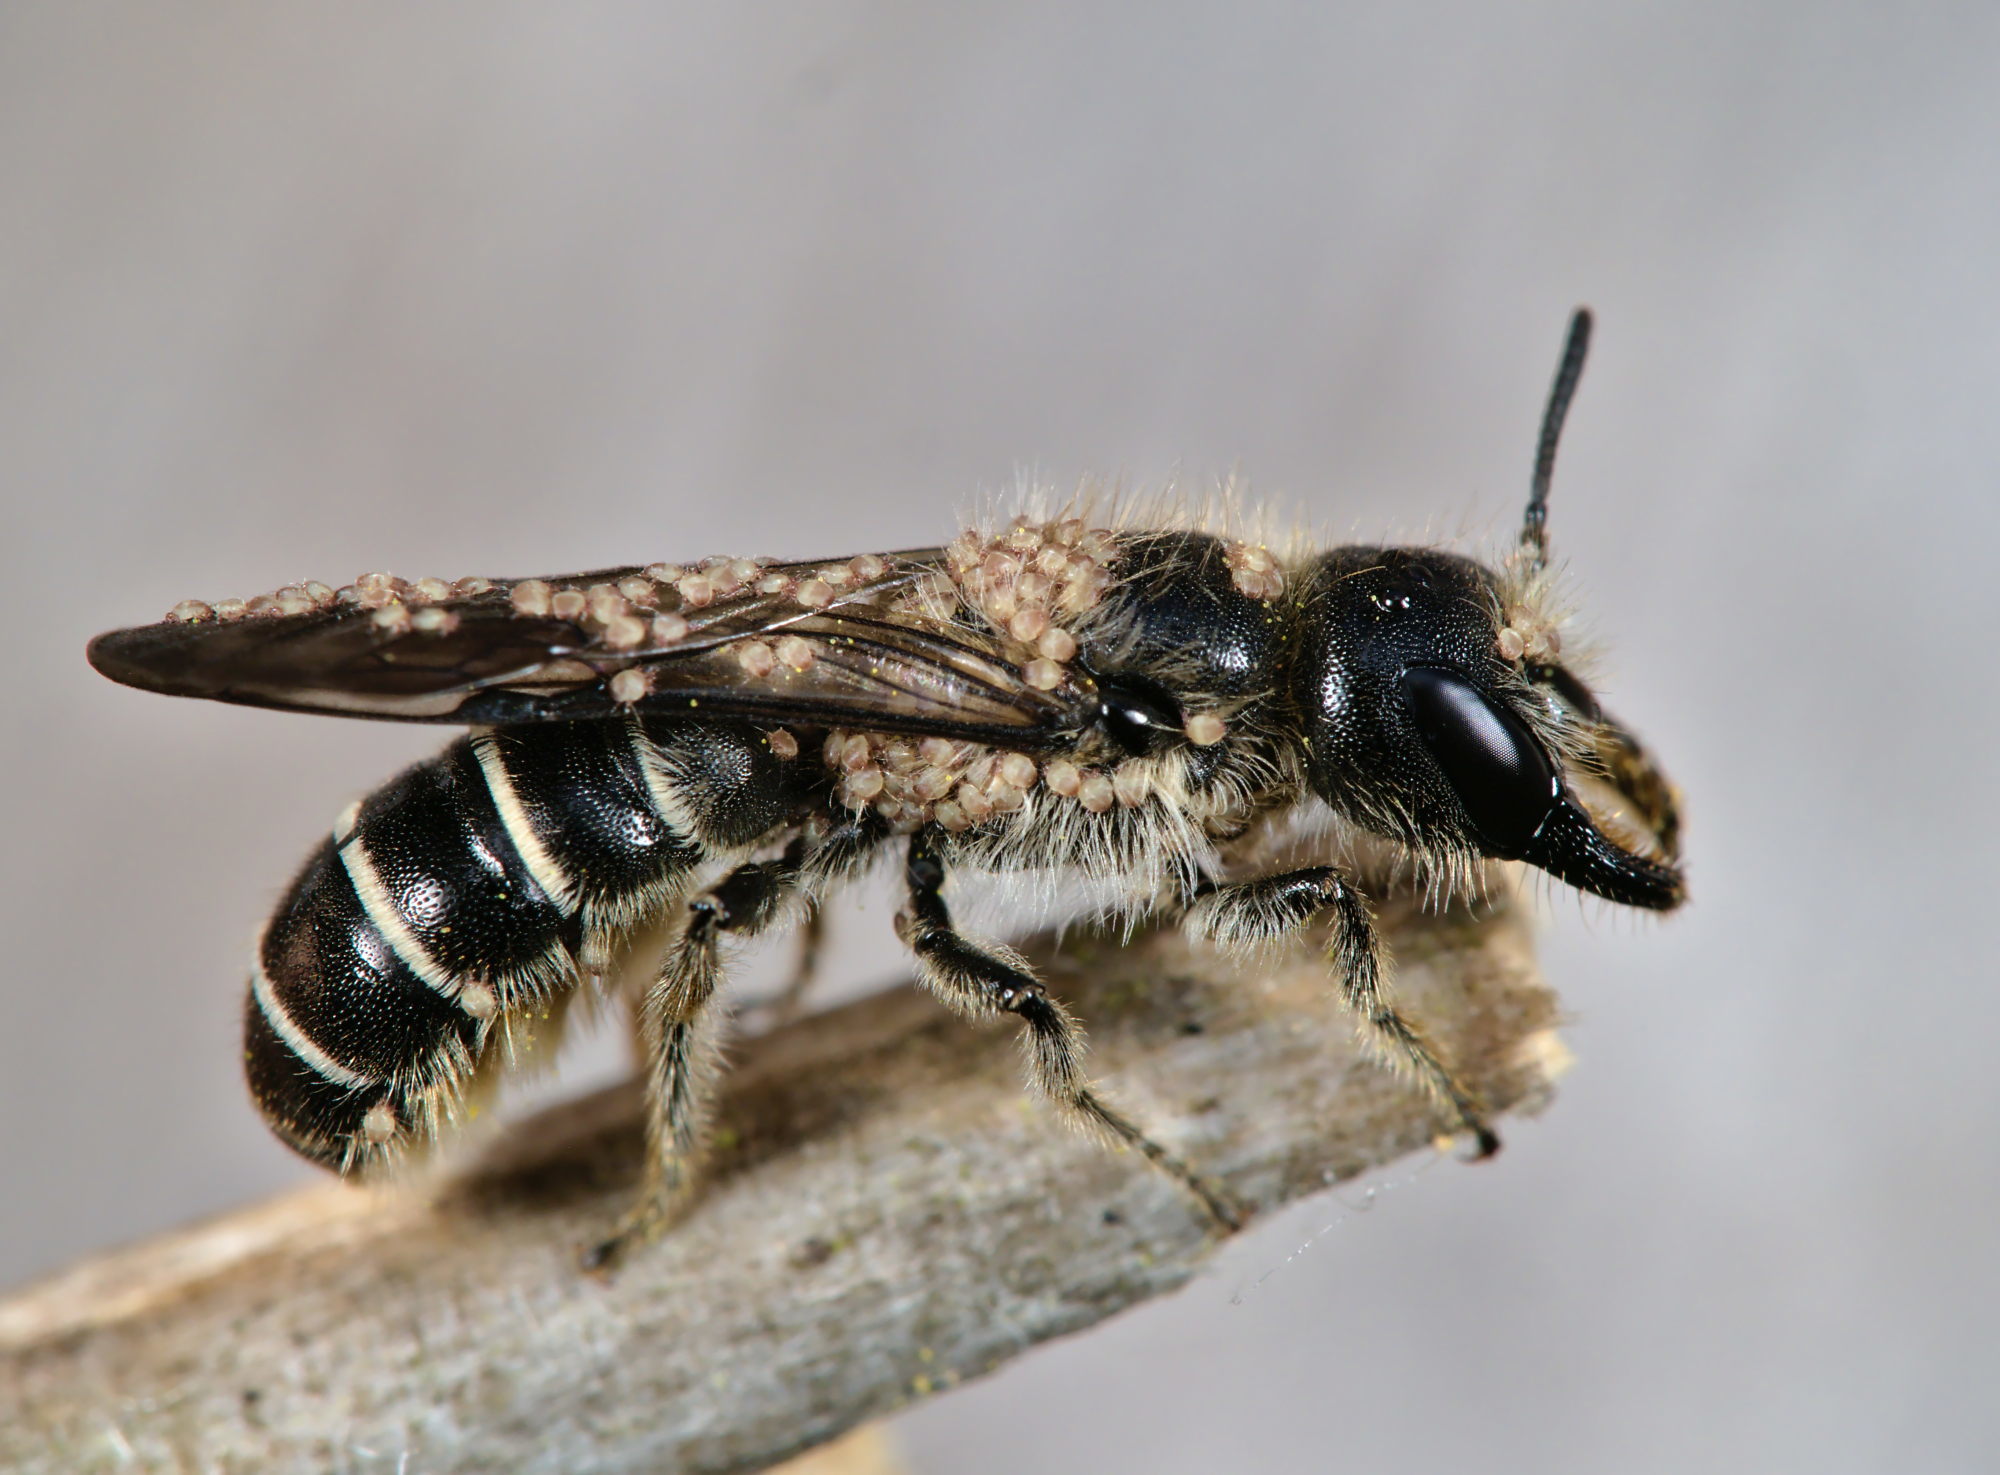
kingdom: Animalia
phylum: Arthropoda
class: Insecta
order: Hymenoptera
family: Megachilidae
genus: Chelostoma
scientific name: Chelostoma florisomne
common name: Sleepy carpenter bee
